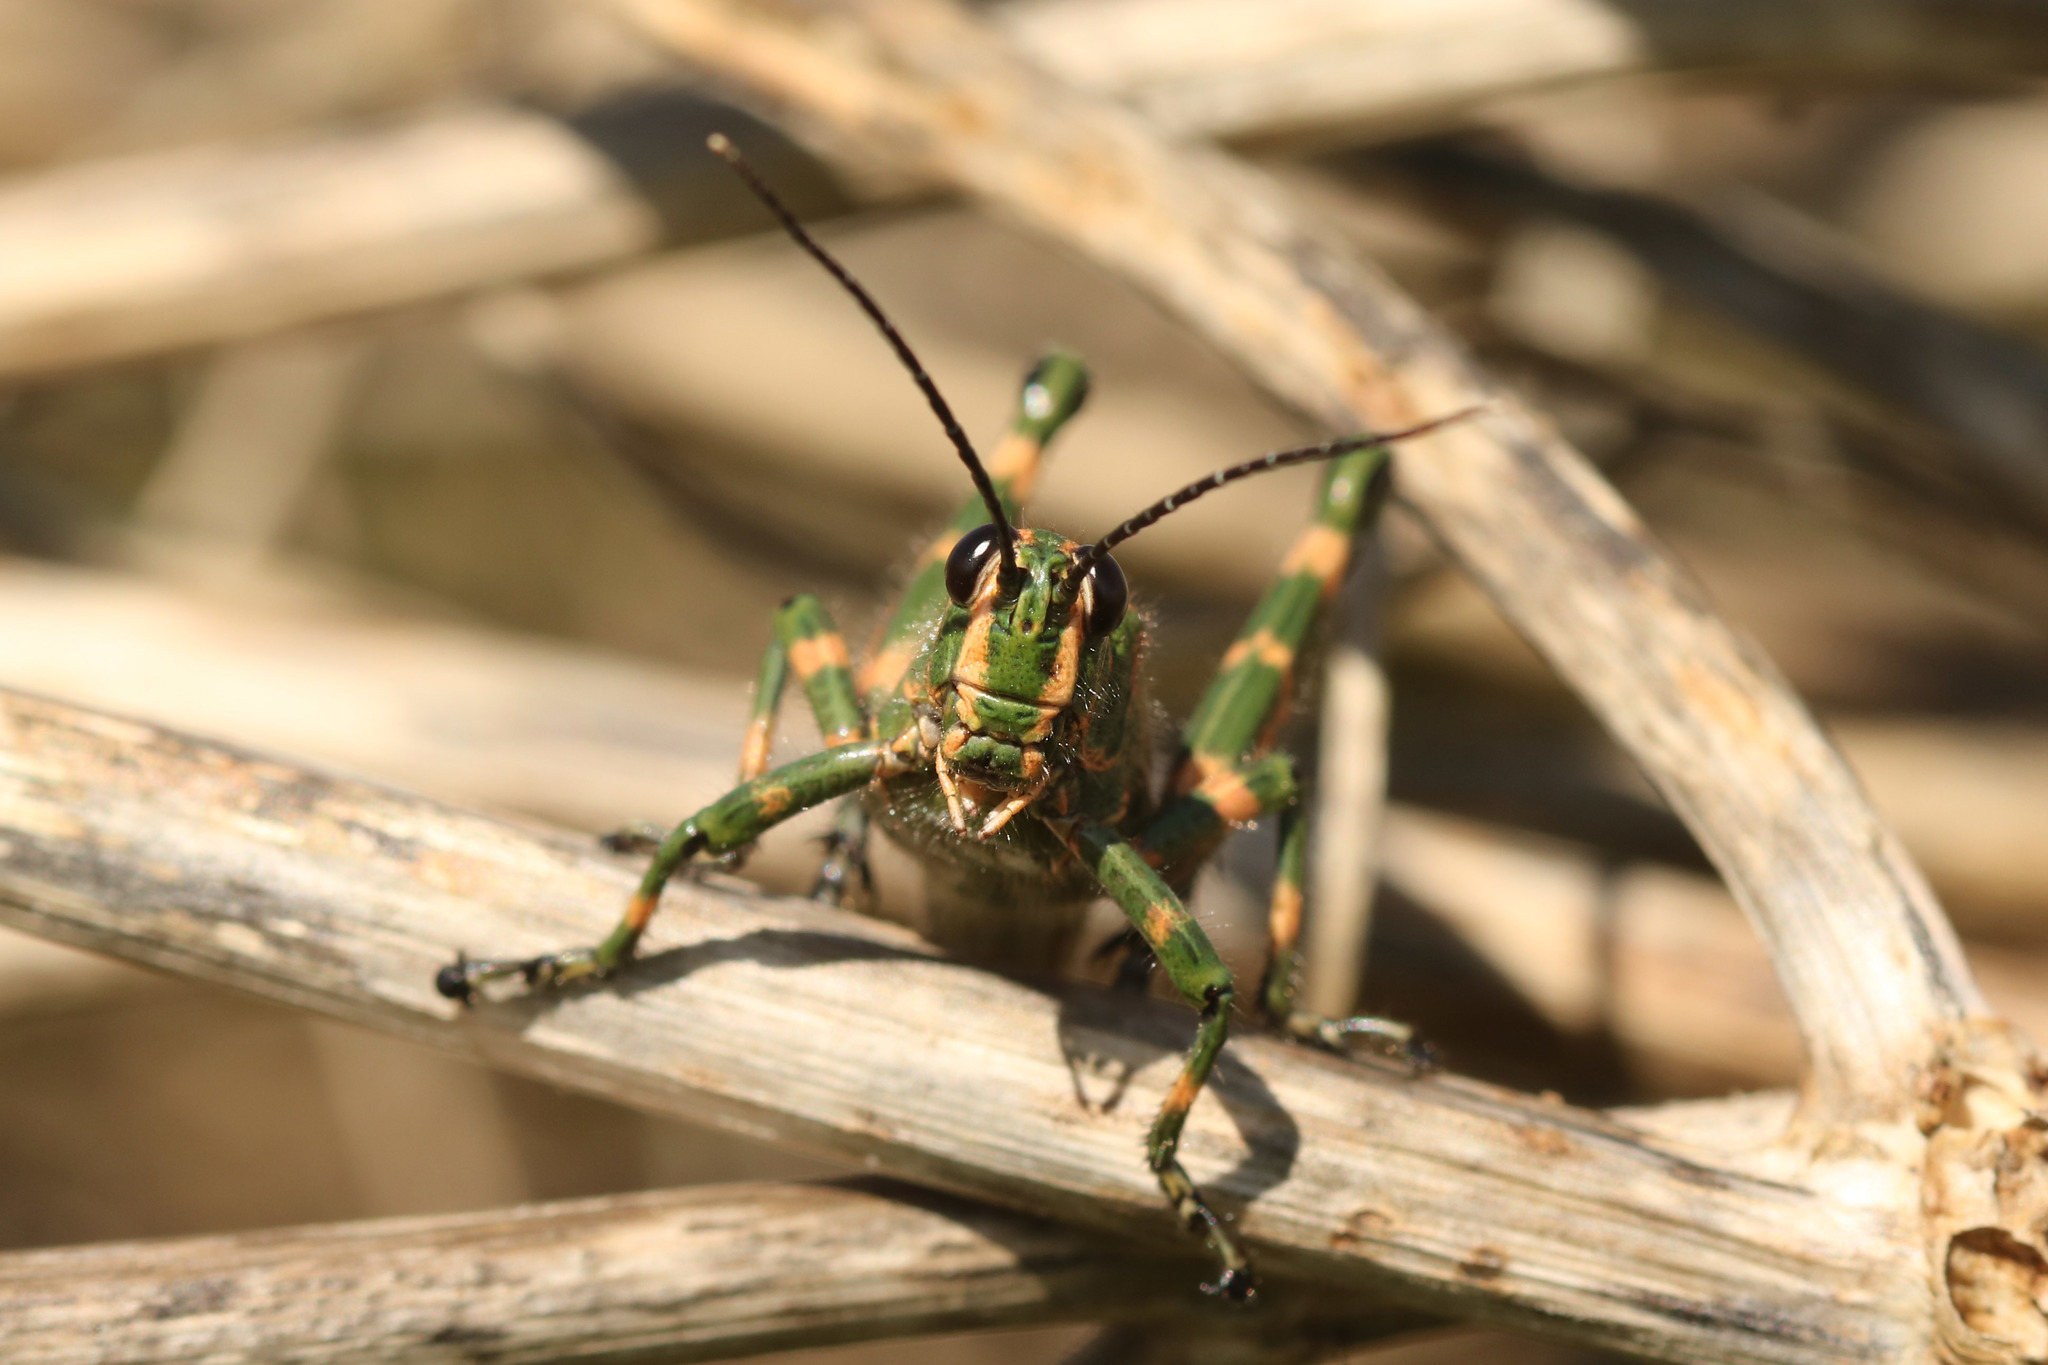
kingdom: Animalia
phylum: Arthropoda
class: Insecta
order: Orthoptera
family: Romaleidae
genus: Chromacris
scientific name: Chromacris speciosa
